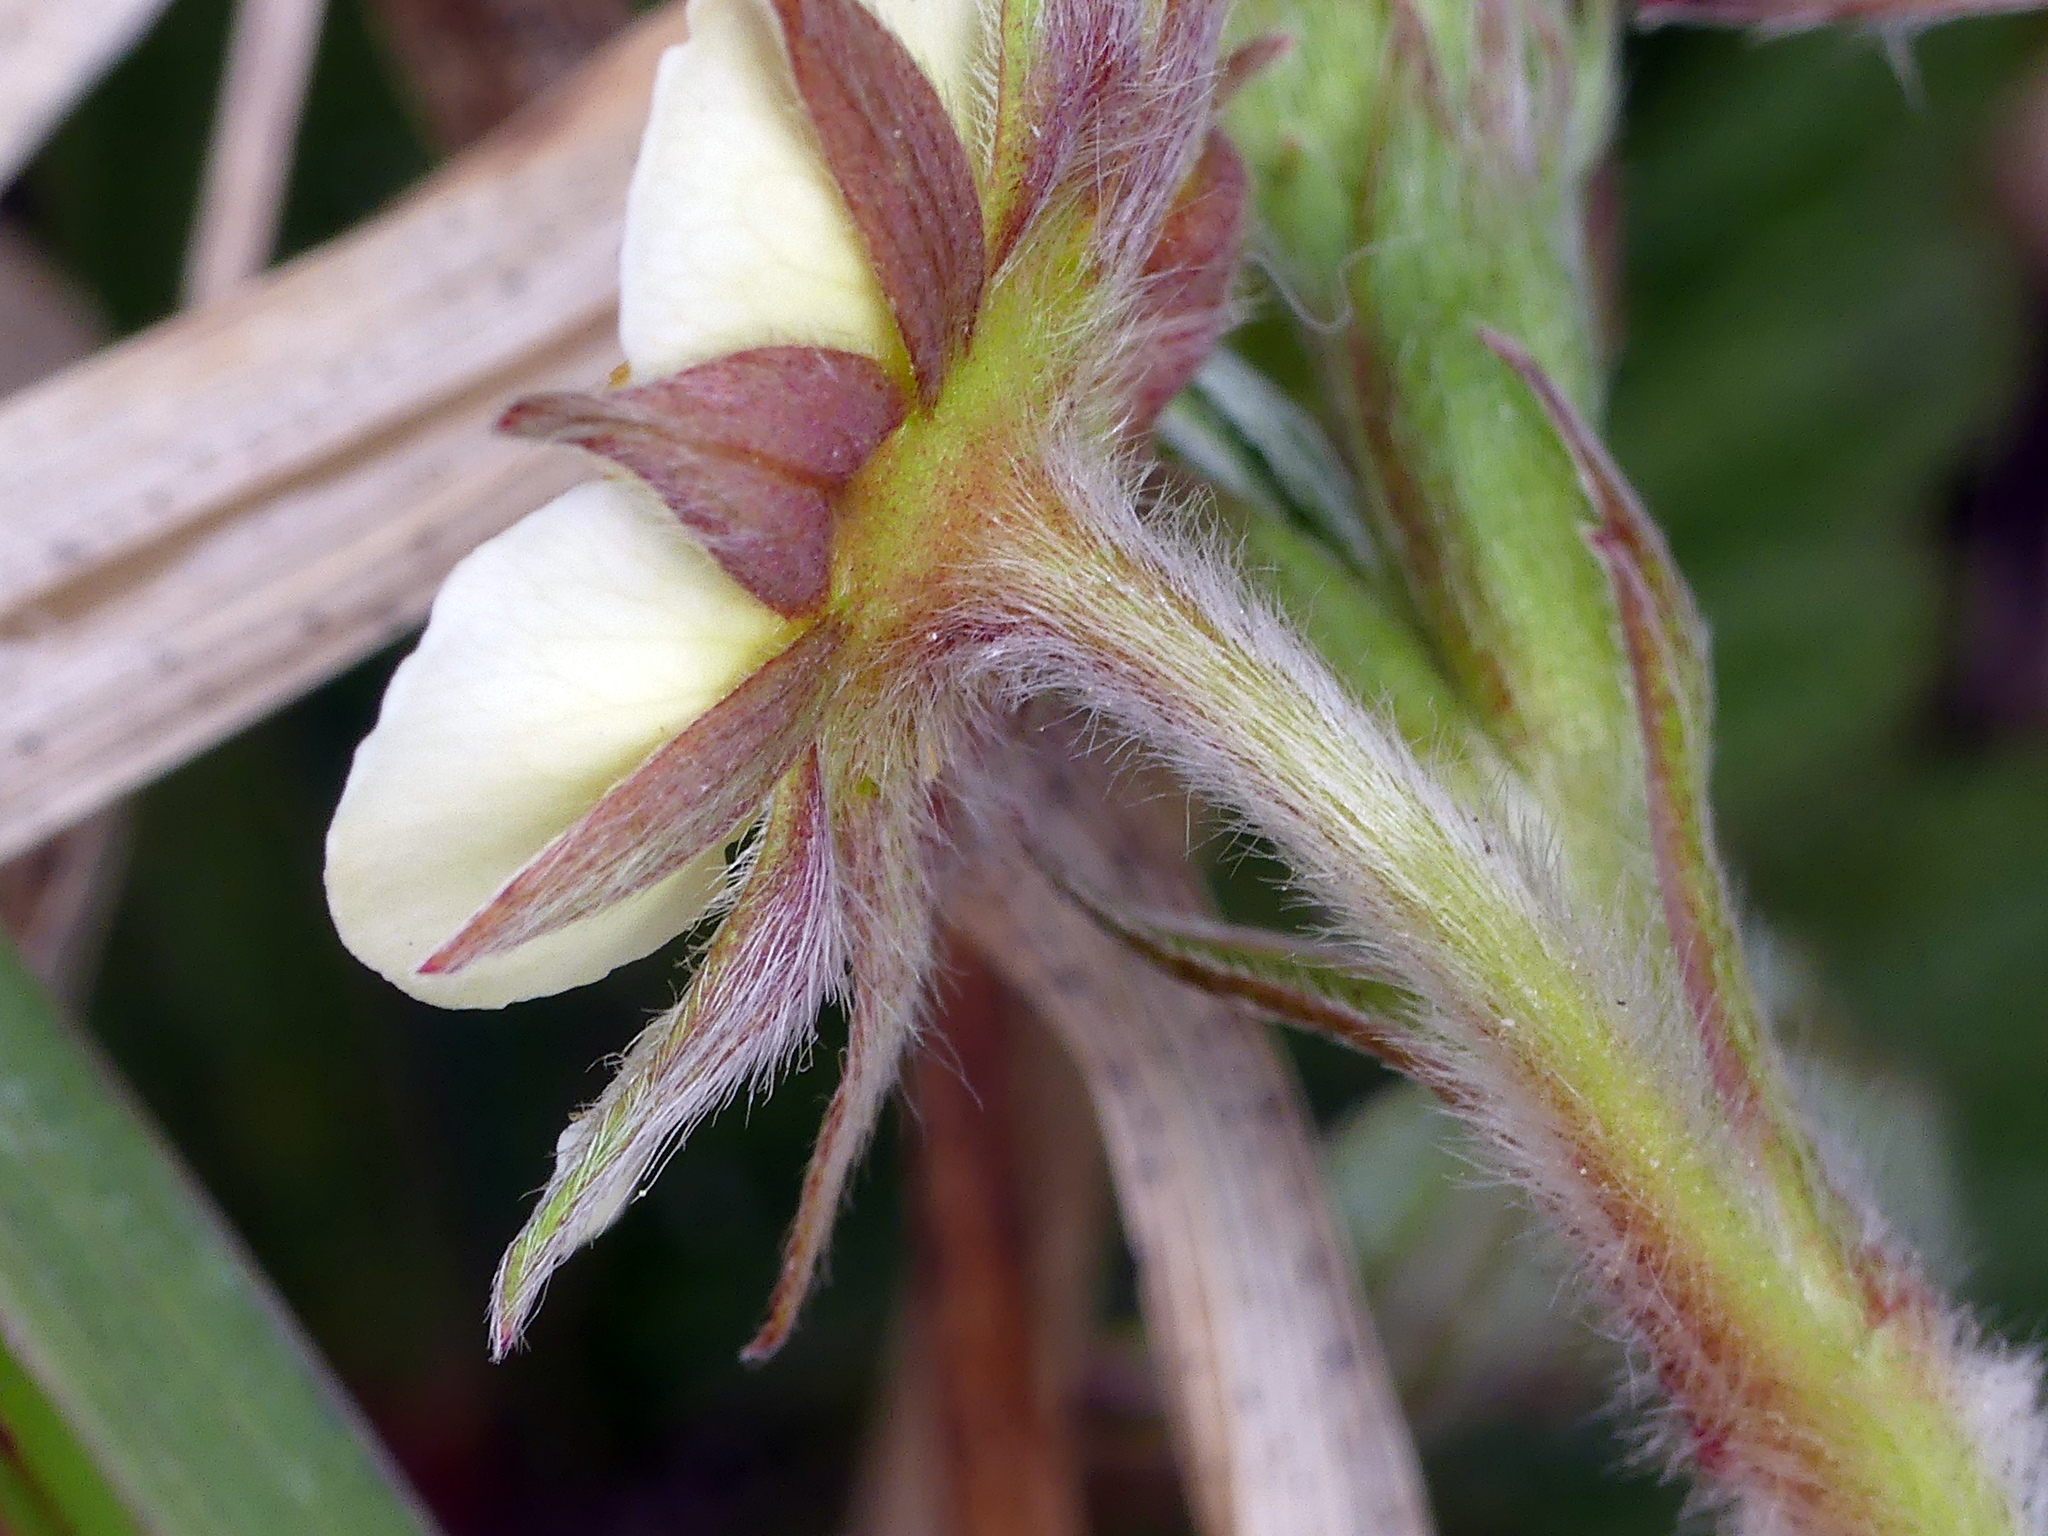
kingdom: Plantae
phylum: Tracheophyta
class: Magnoliopsida
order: Rosales
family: Rosaceae
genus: Fragaria
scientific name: Fragaria vesca
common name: Wild strawberry
